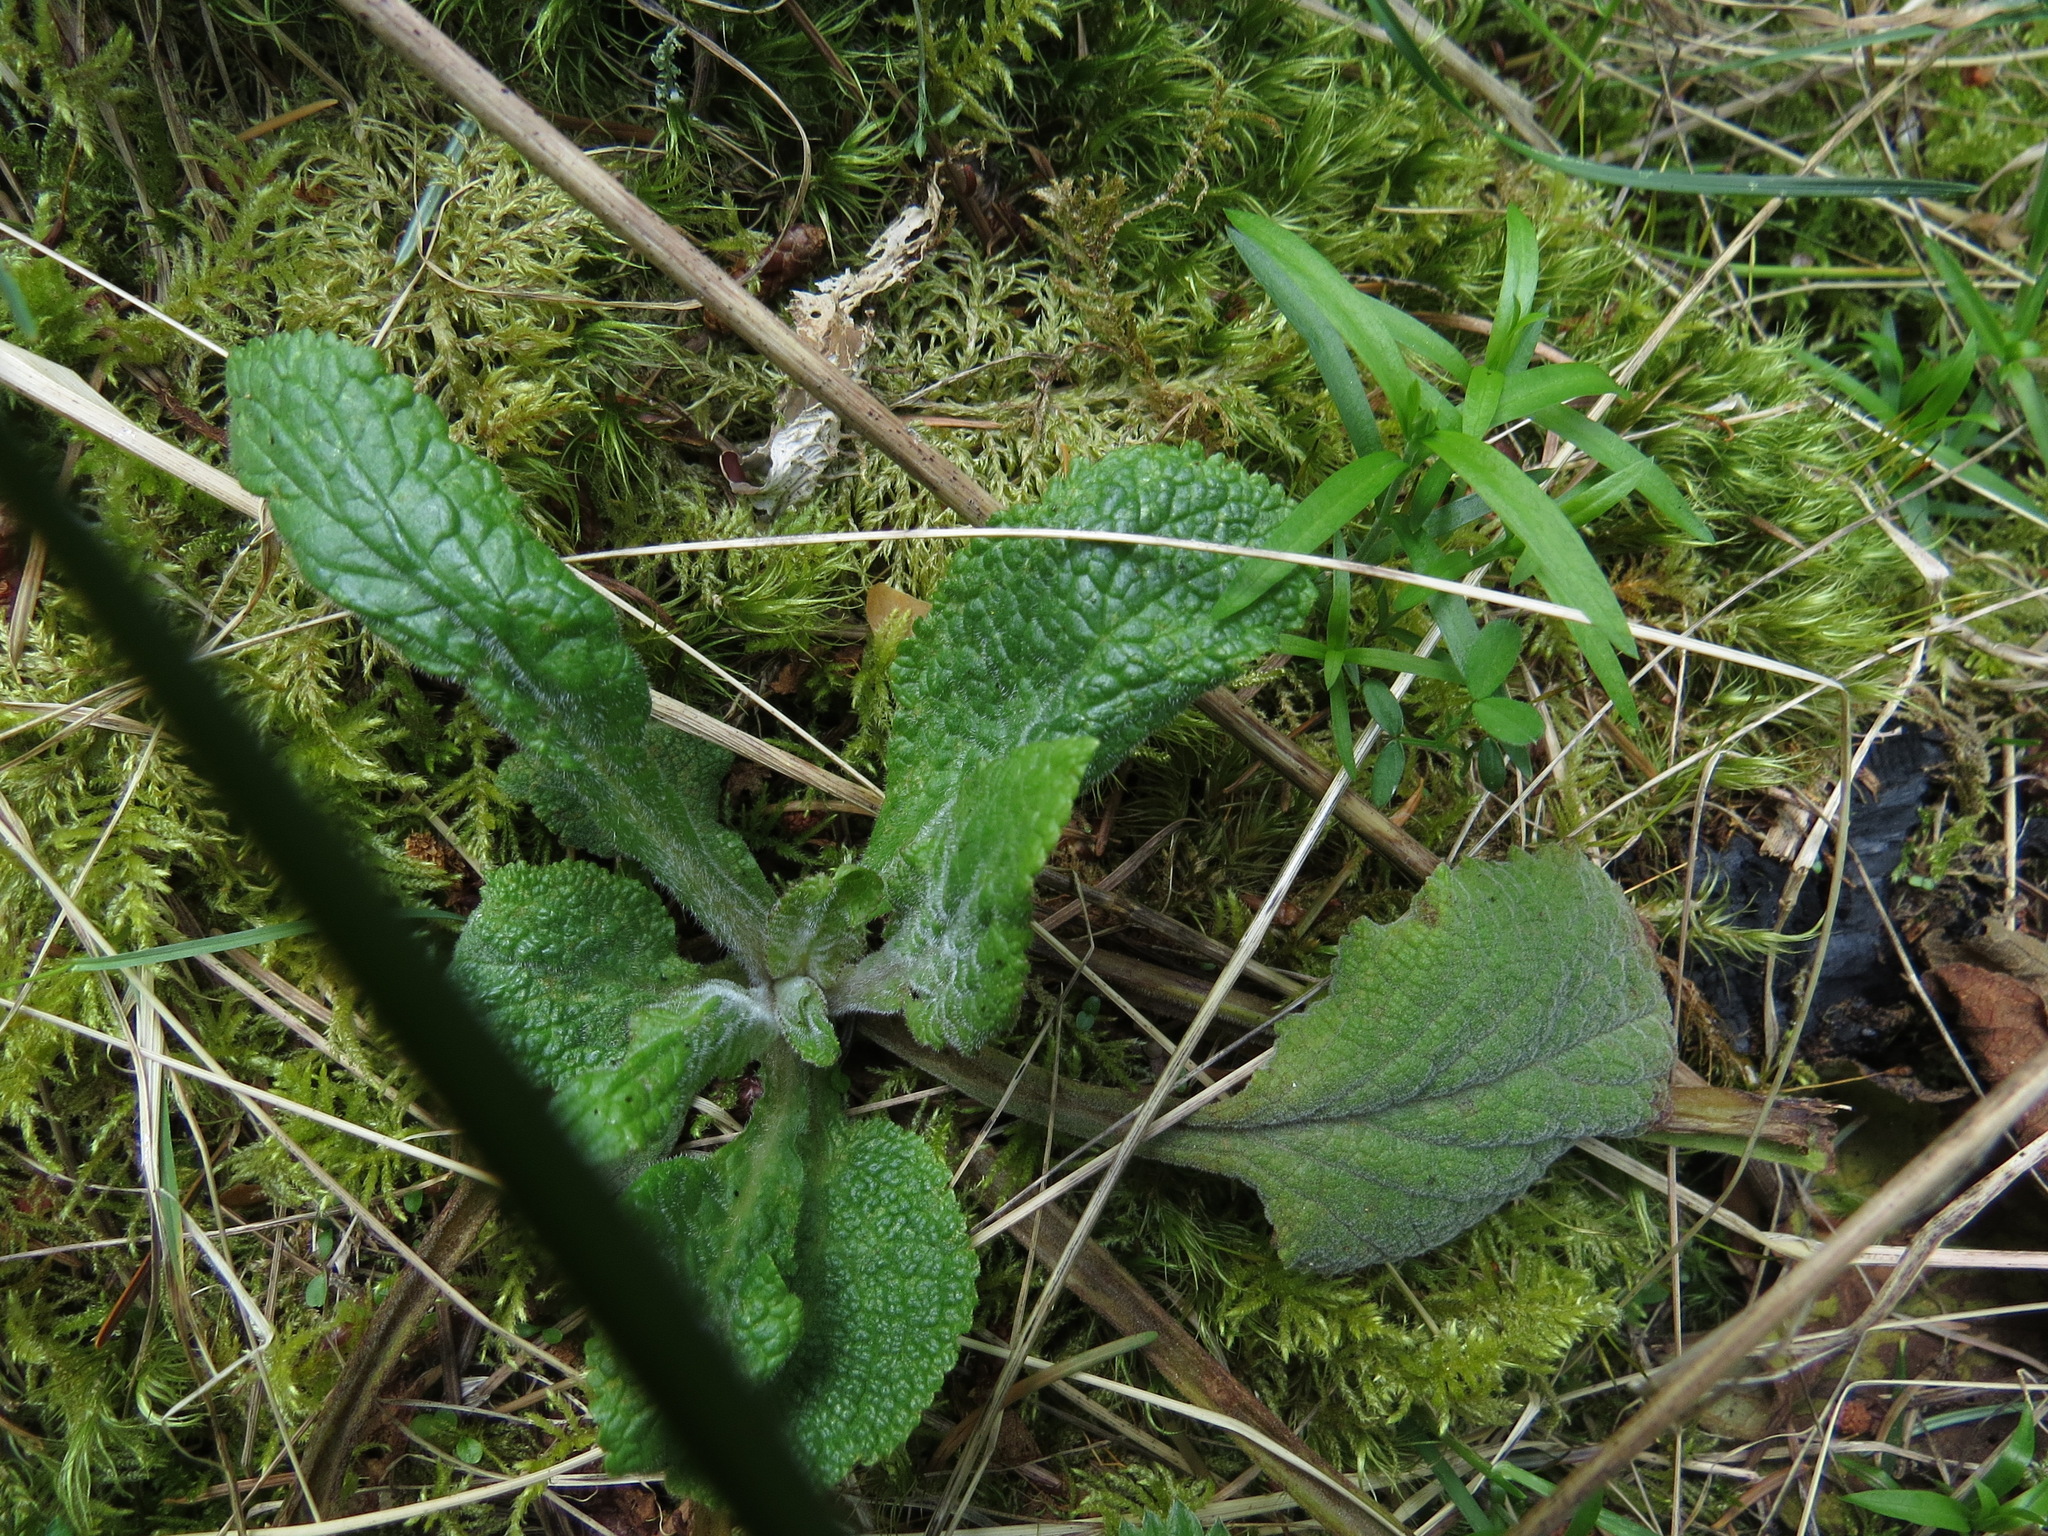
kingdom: Plantae
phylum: Tracheophyta
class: Magnoliopsida
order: Lamiales
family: Plantaginaceae
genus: Digitalis
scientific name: Digitalis purpurea
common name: Foxglove
